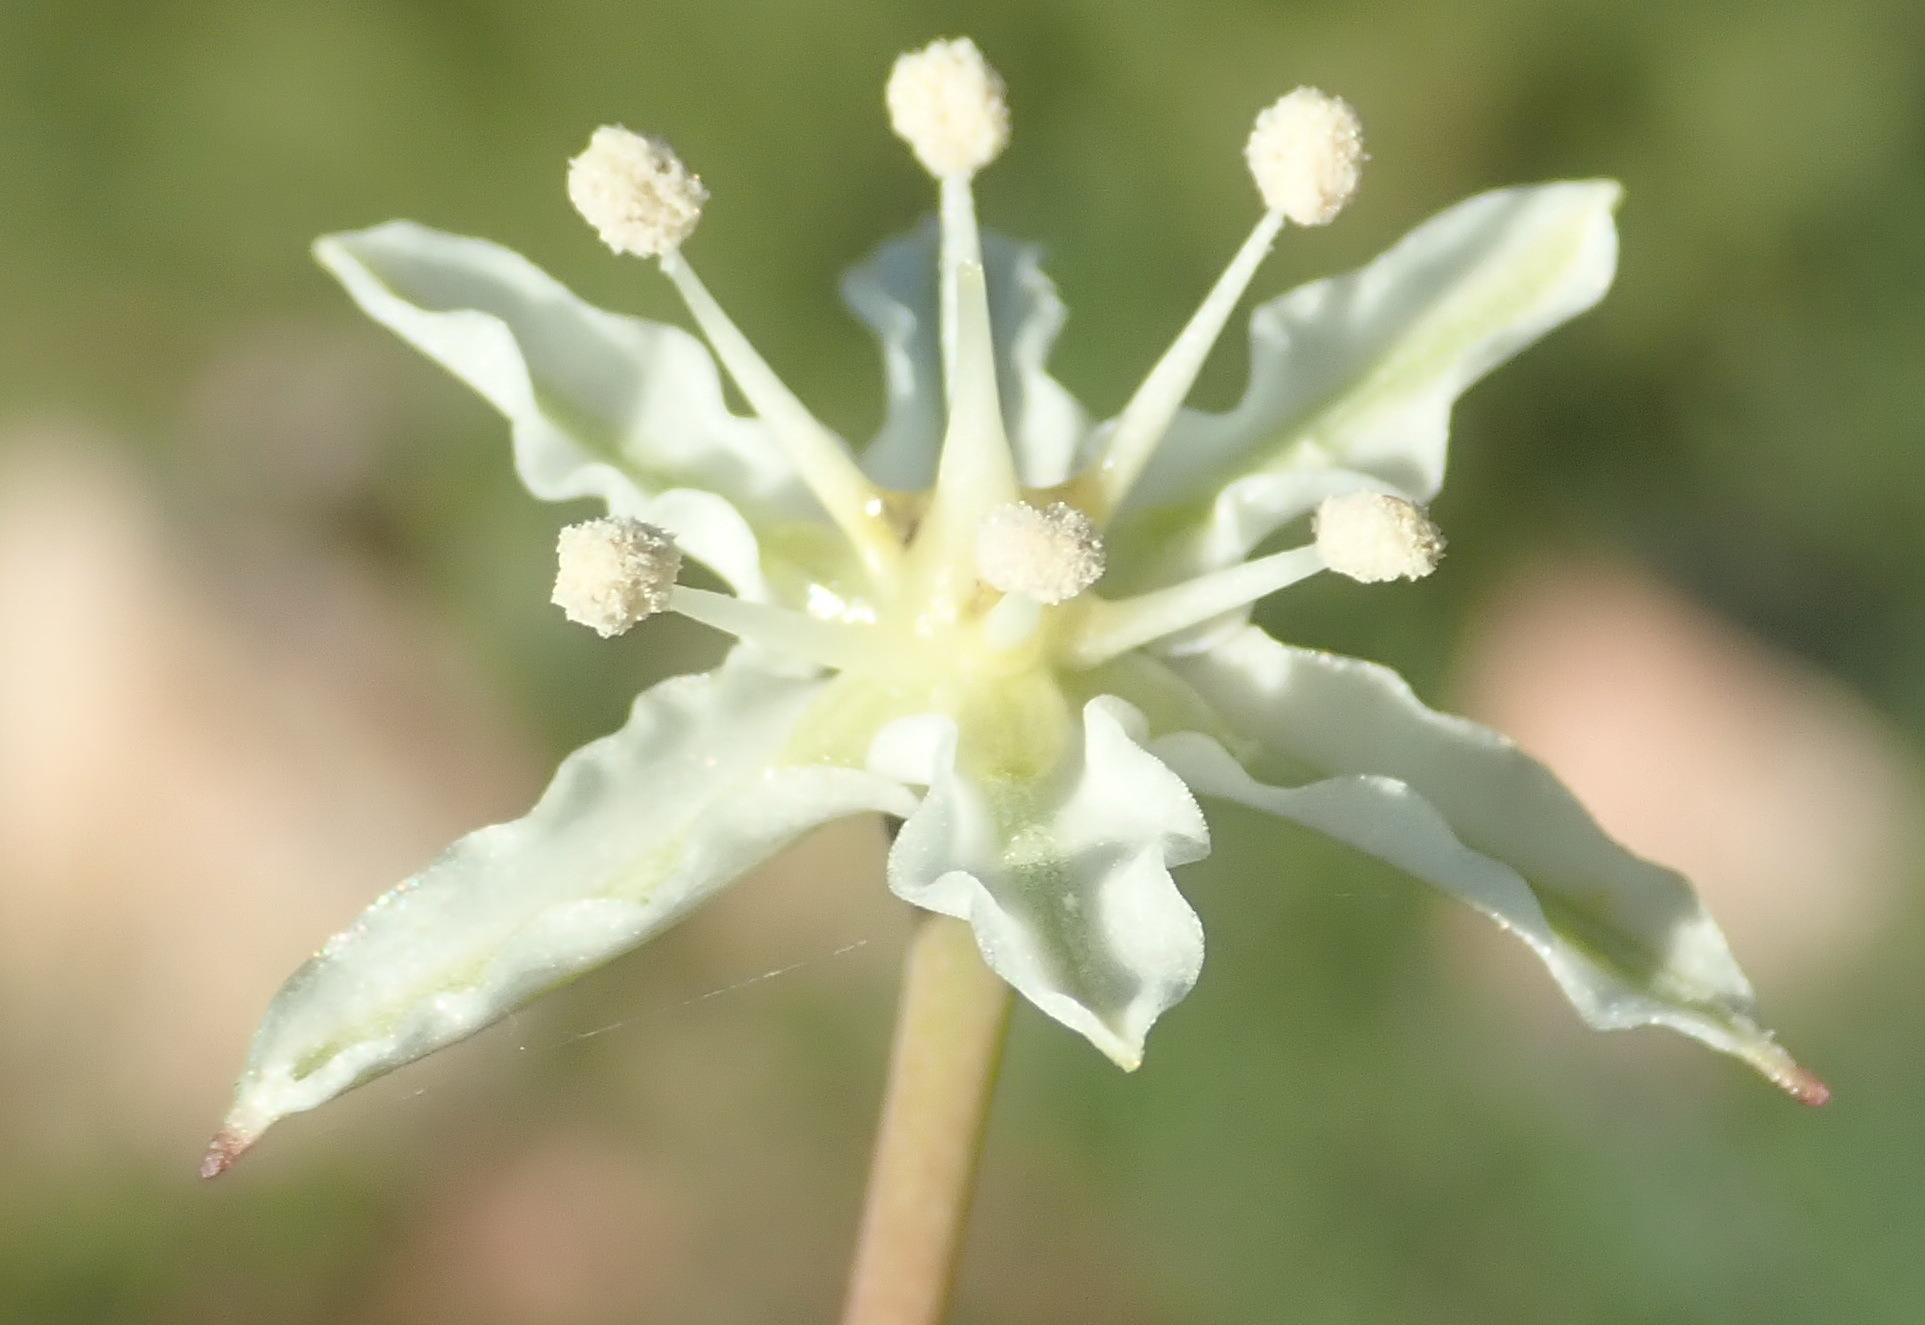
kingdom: Plantae
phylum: Tracheophyta
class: Liliopsida
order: Asparagales
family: Amaryllidaceae
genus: Strumaria
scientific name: Strumaria gemmata
